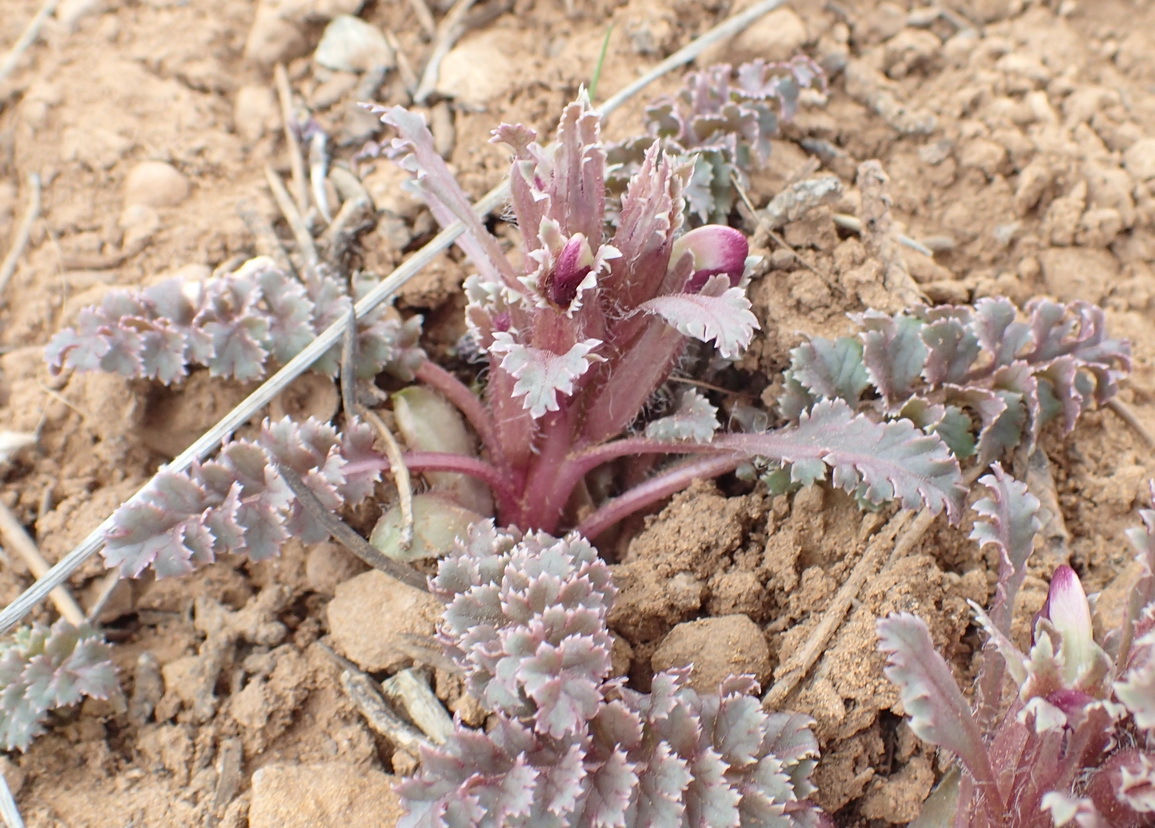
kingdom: Plantae
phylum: Tracheophyta
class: Magnoliopsida
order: Lamiales
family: Orobanchaceae
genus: Pedicularis
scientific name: Pedicularis centranthera
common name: Dwarf lousewort
